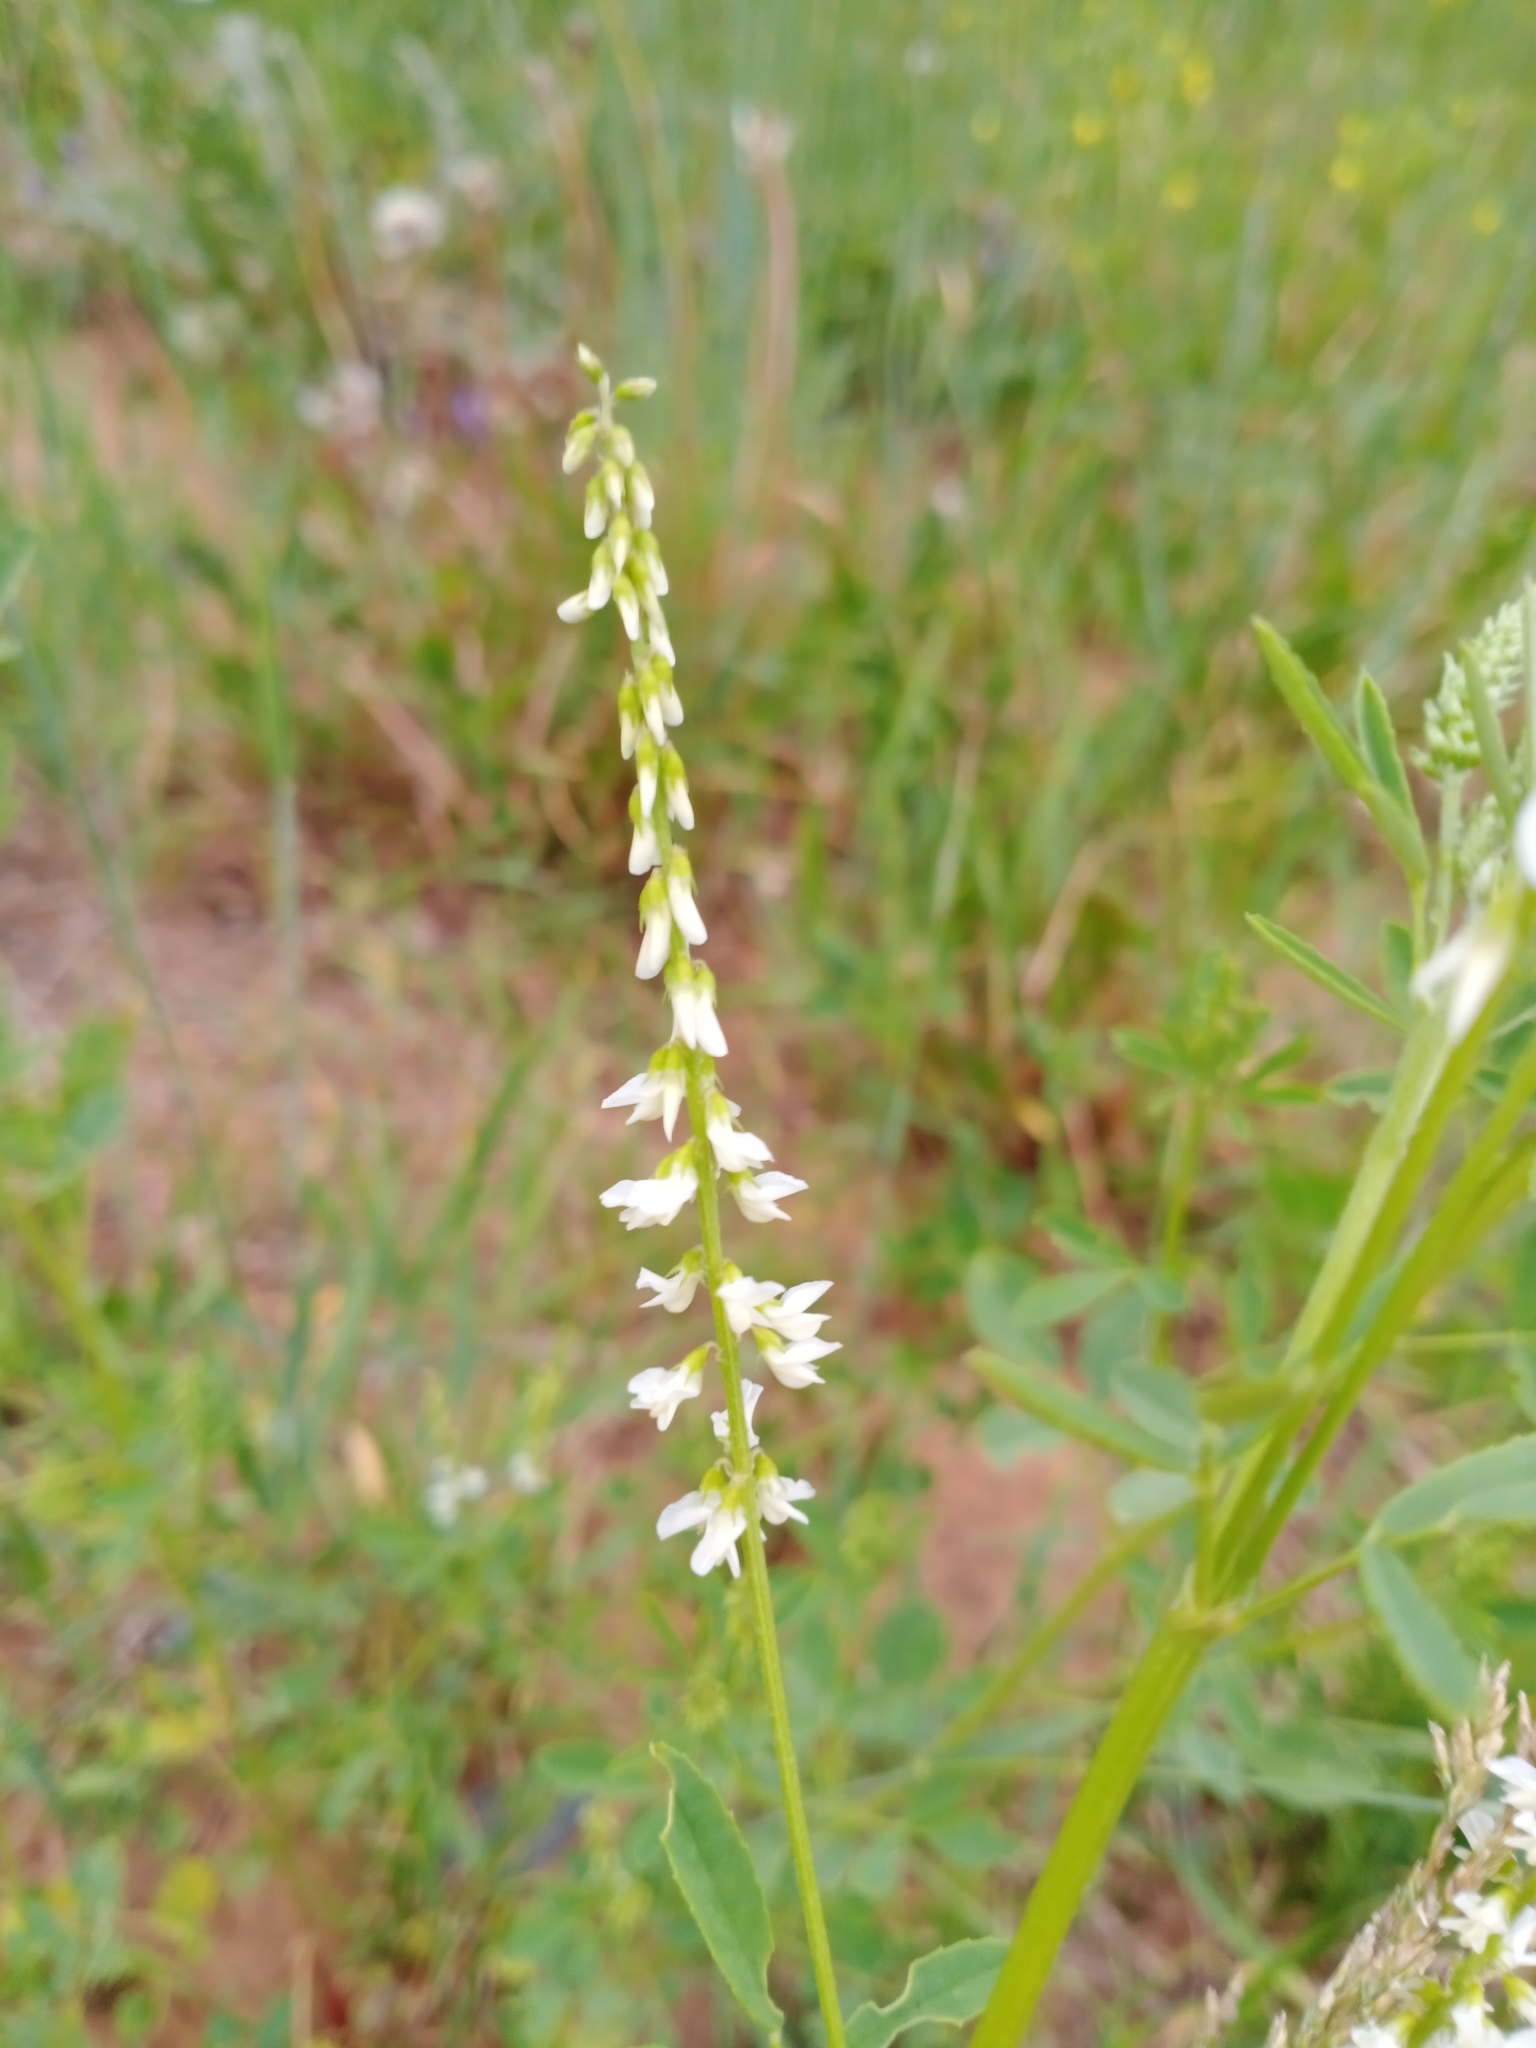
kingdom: Plantae
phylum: Tracheophyta
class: Magnoliopsida
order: Fabales
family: Fabaceae
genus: Melilotus
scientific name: Melilotus albus
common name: White melilot
